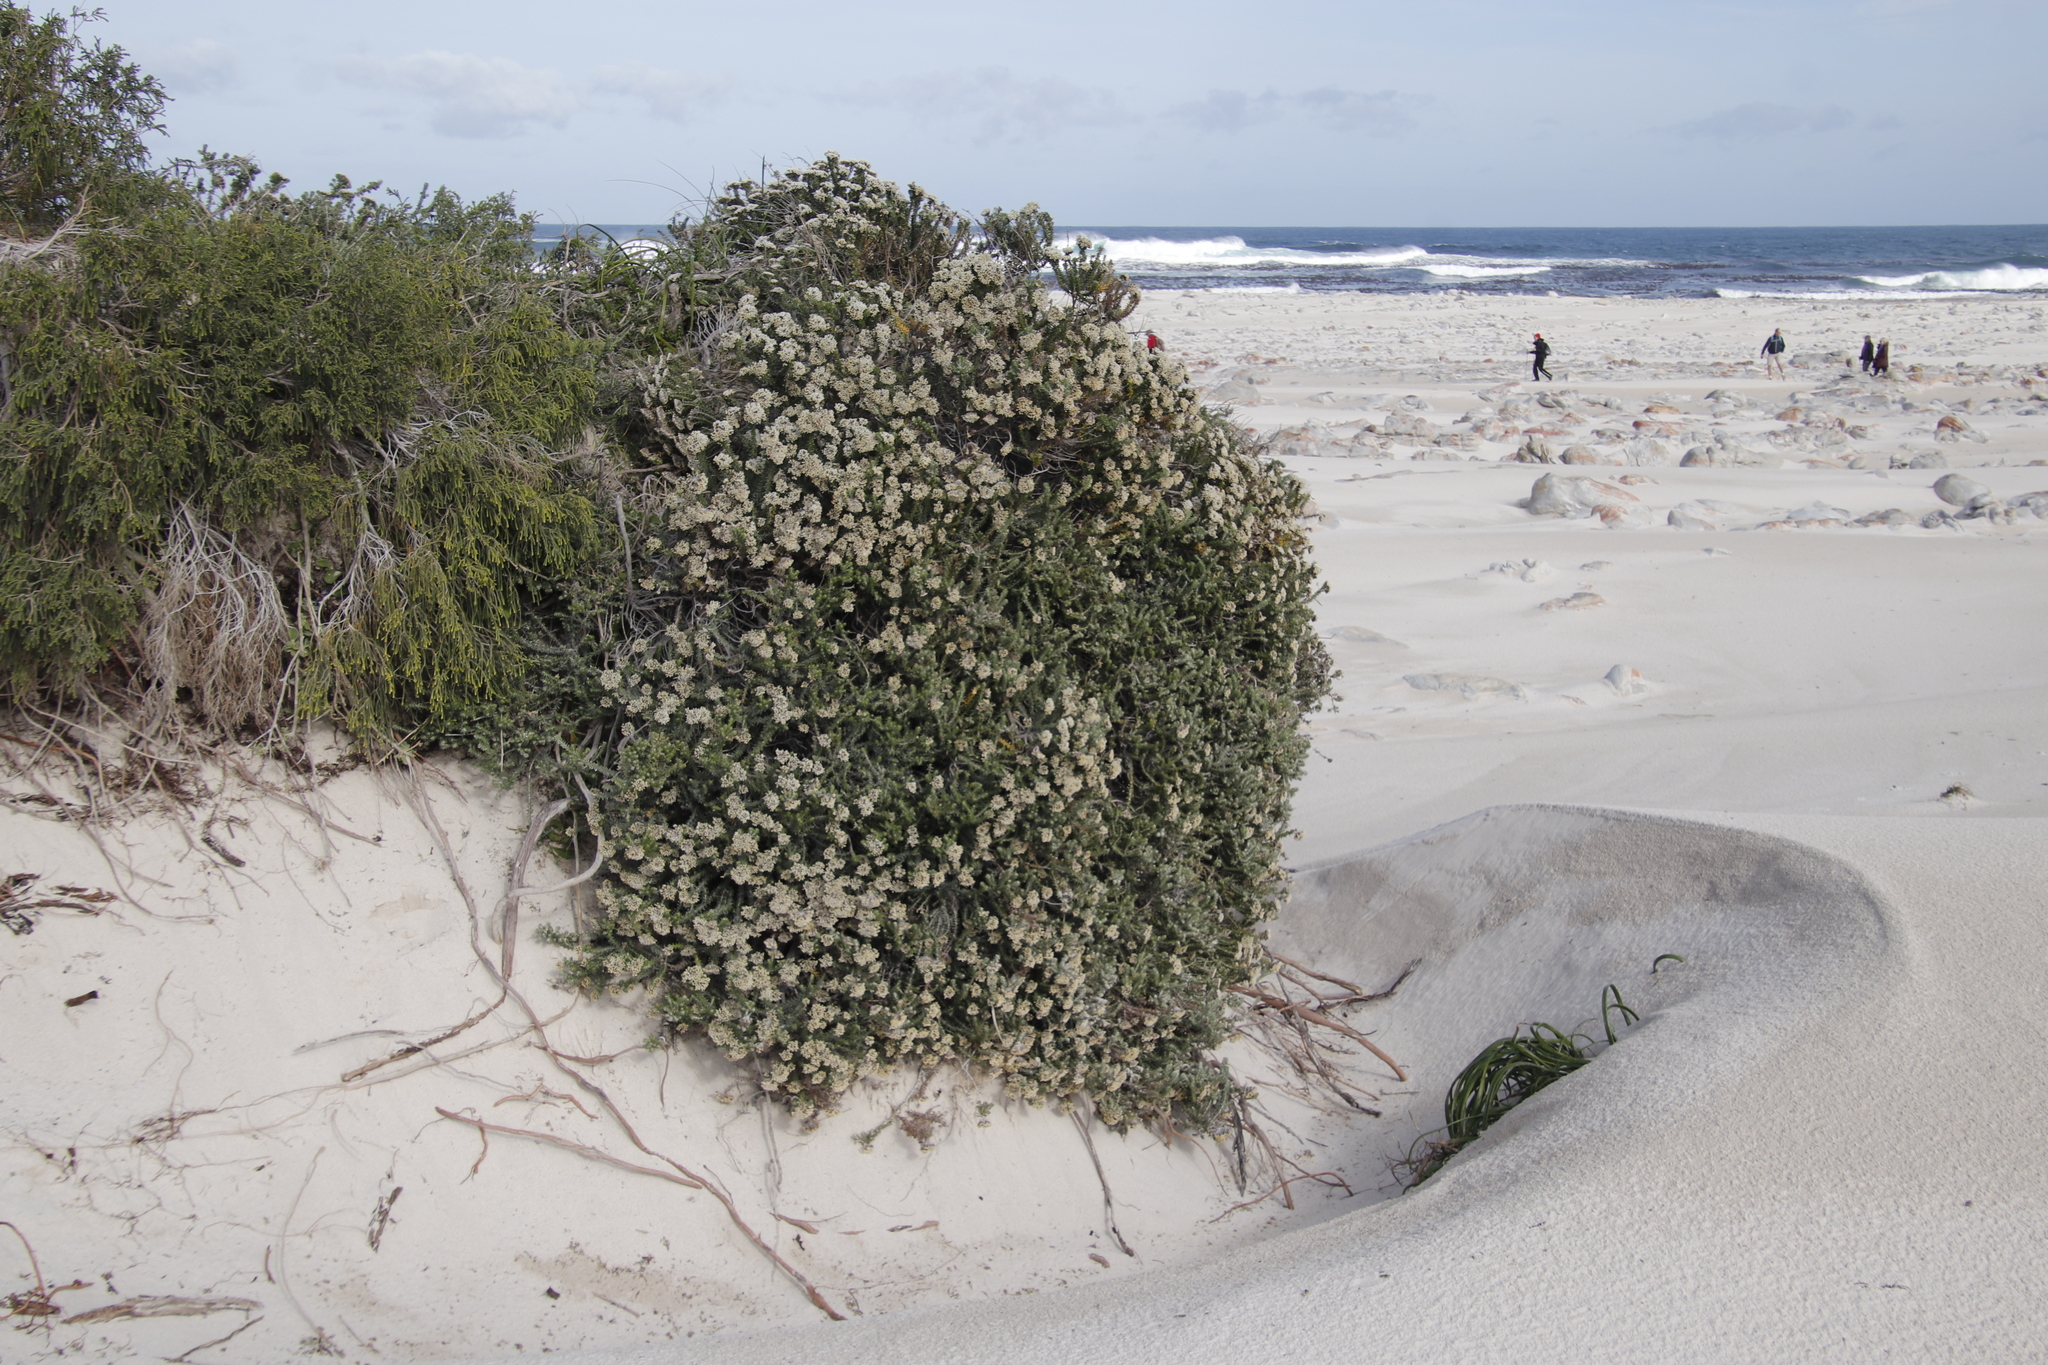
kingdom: Plantae
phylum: Tracheophyta
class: Magnoliopsida
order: Asterales
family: Asteraceae
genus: Metalasia
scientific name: Metalasia muricata
